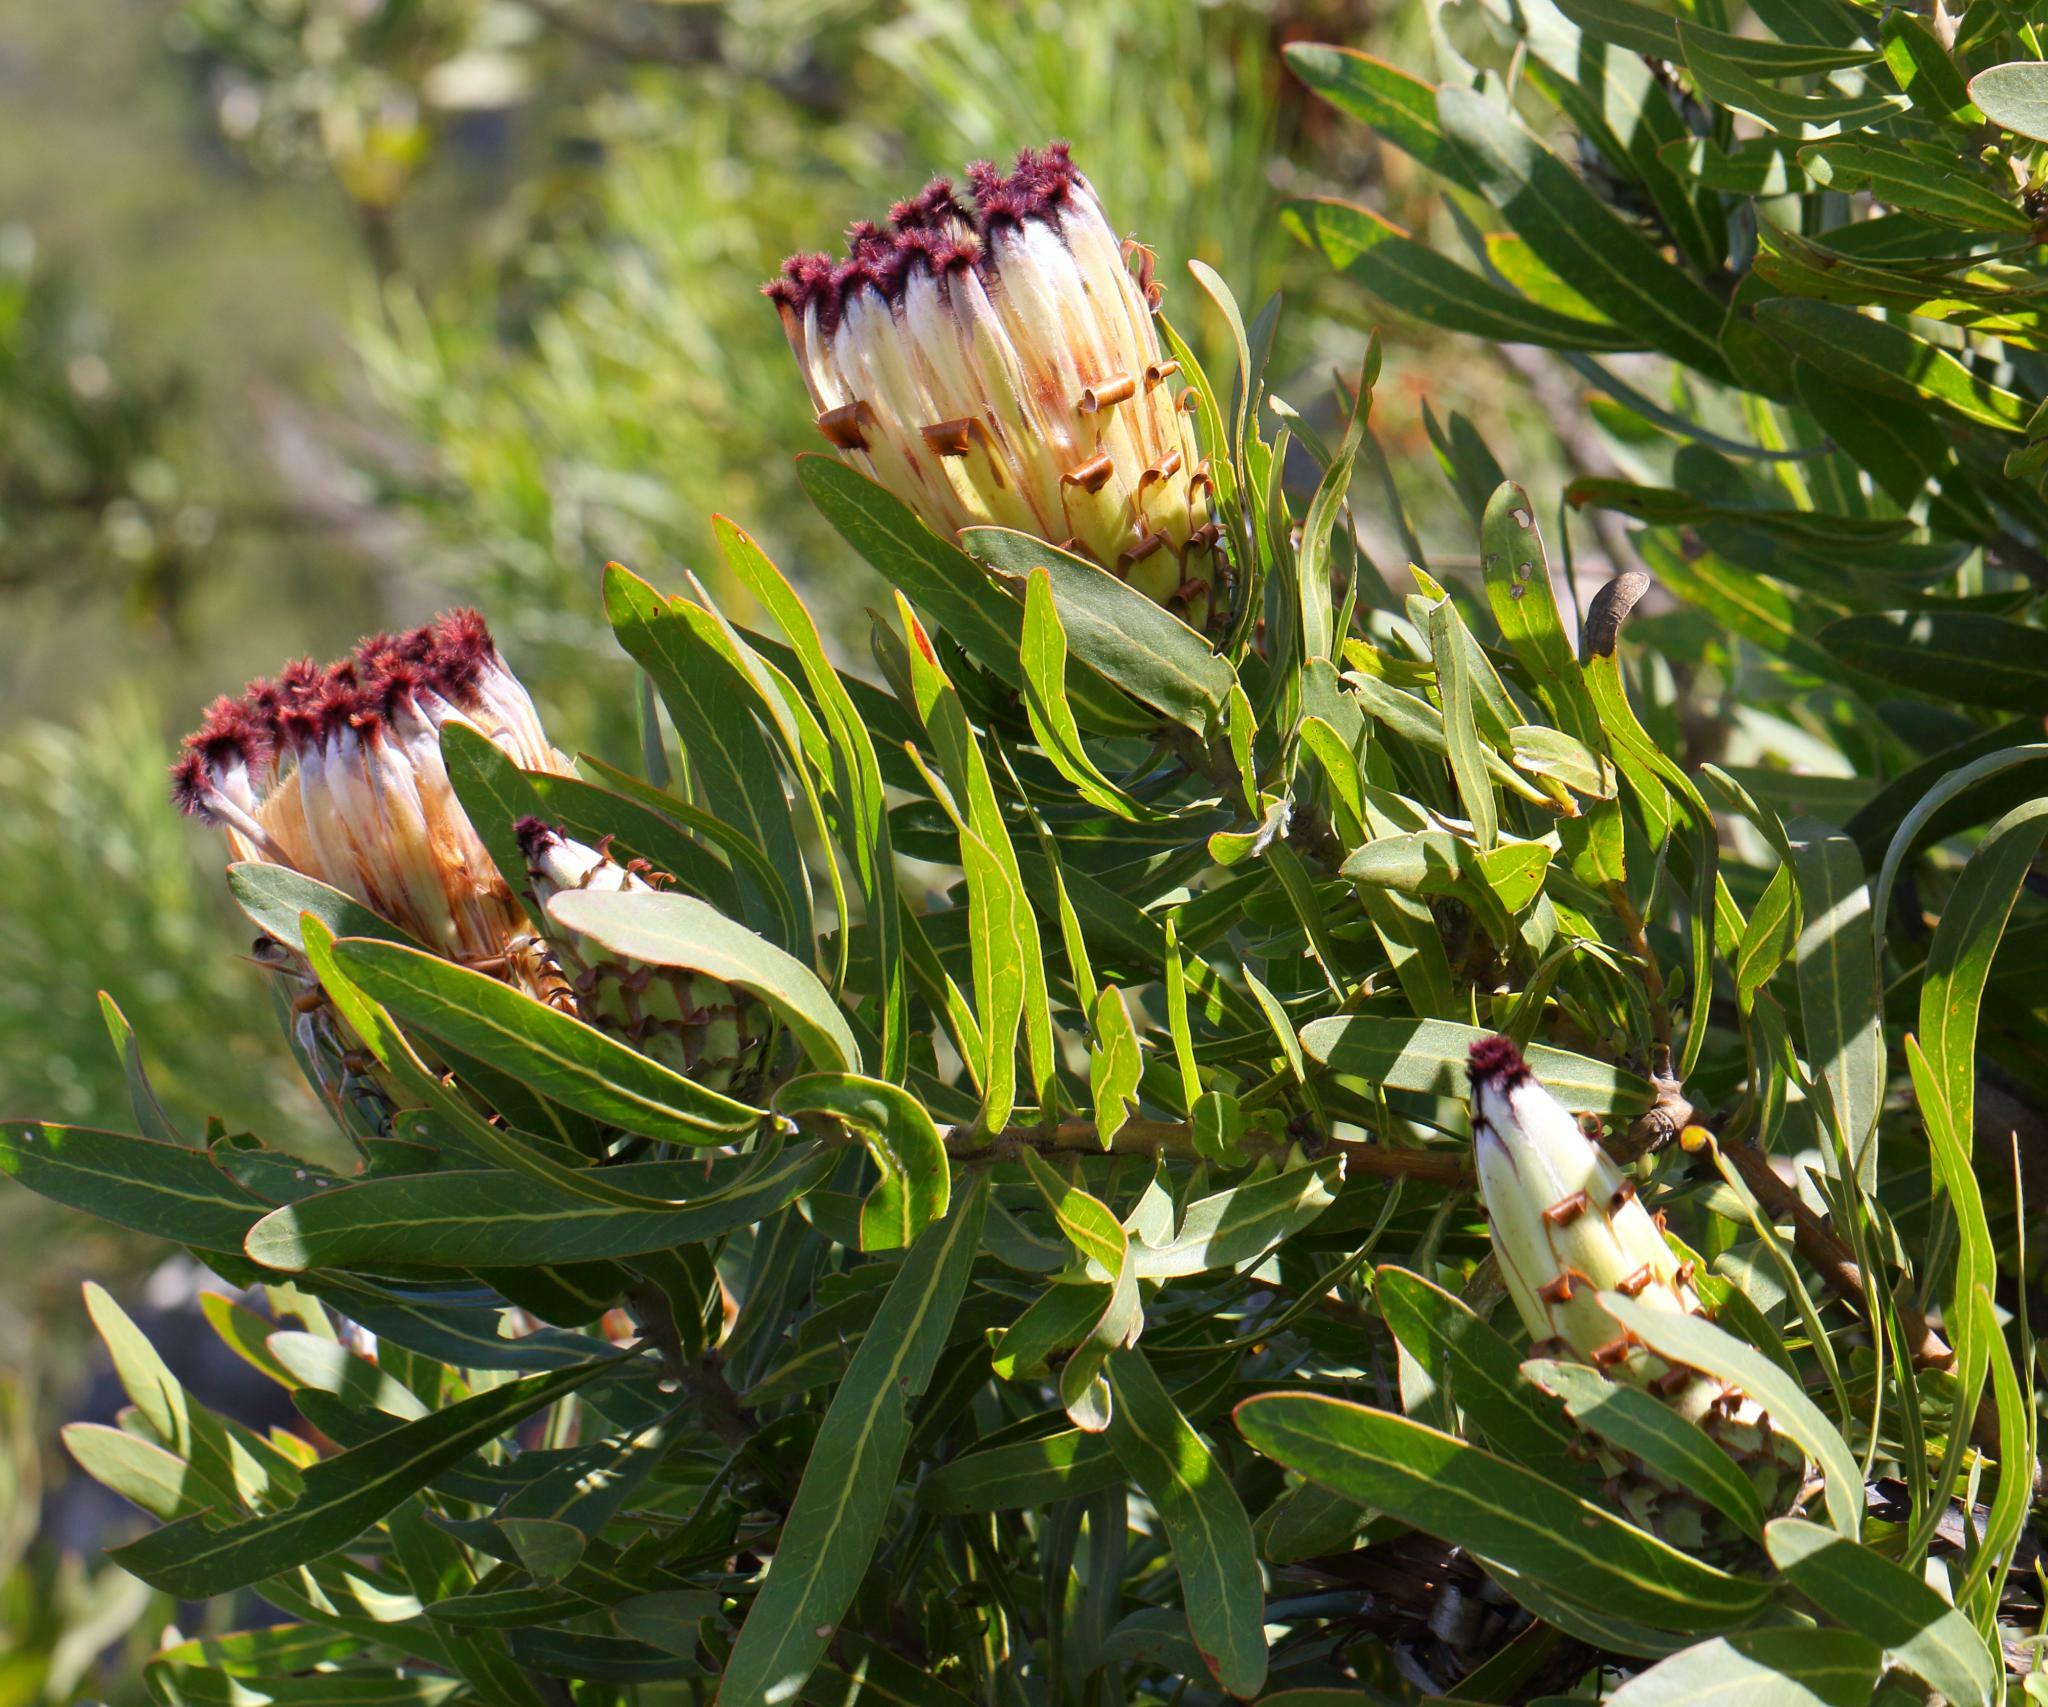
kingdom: Plantae
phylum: Tracheophyta
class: Magnoliopsida
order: Proteales
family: Proteaceae
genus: Protea
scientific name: Protea neriifolia
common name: Blue sugarbush
